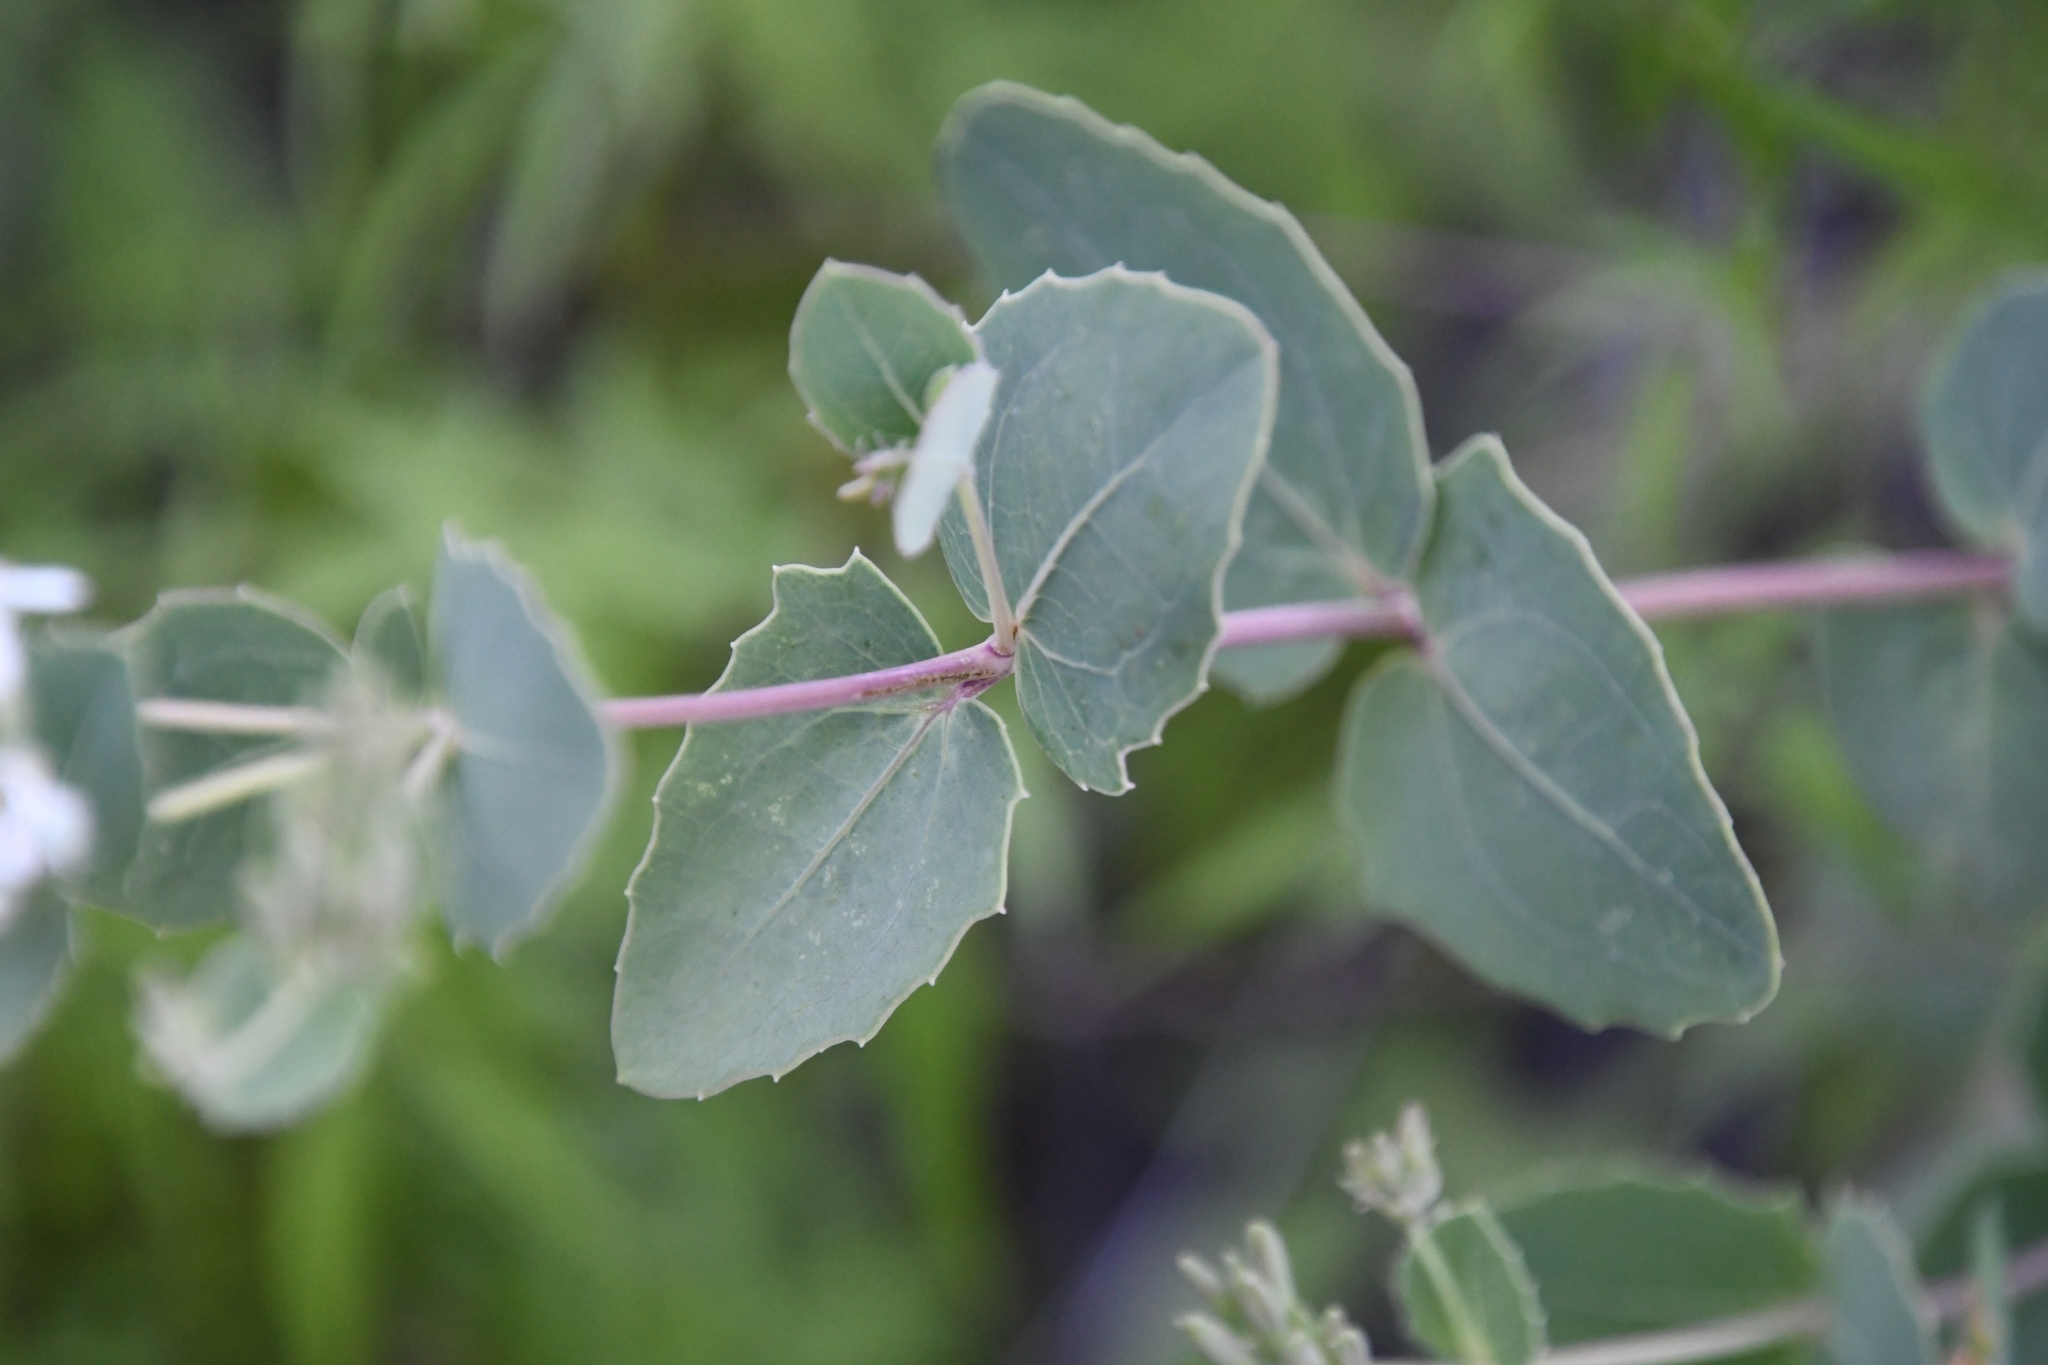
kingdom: Plantae
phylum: Tracheophyta
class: Magnoliopsida
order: Asterales
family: Asteraceae
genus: Guardiola
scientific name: Guardiola platyphylla
